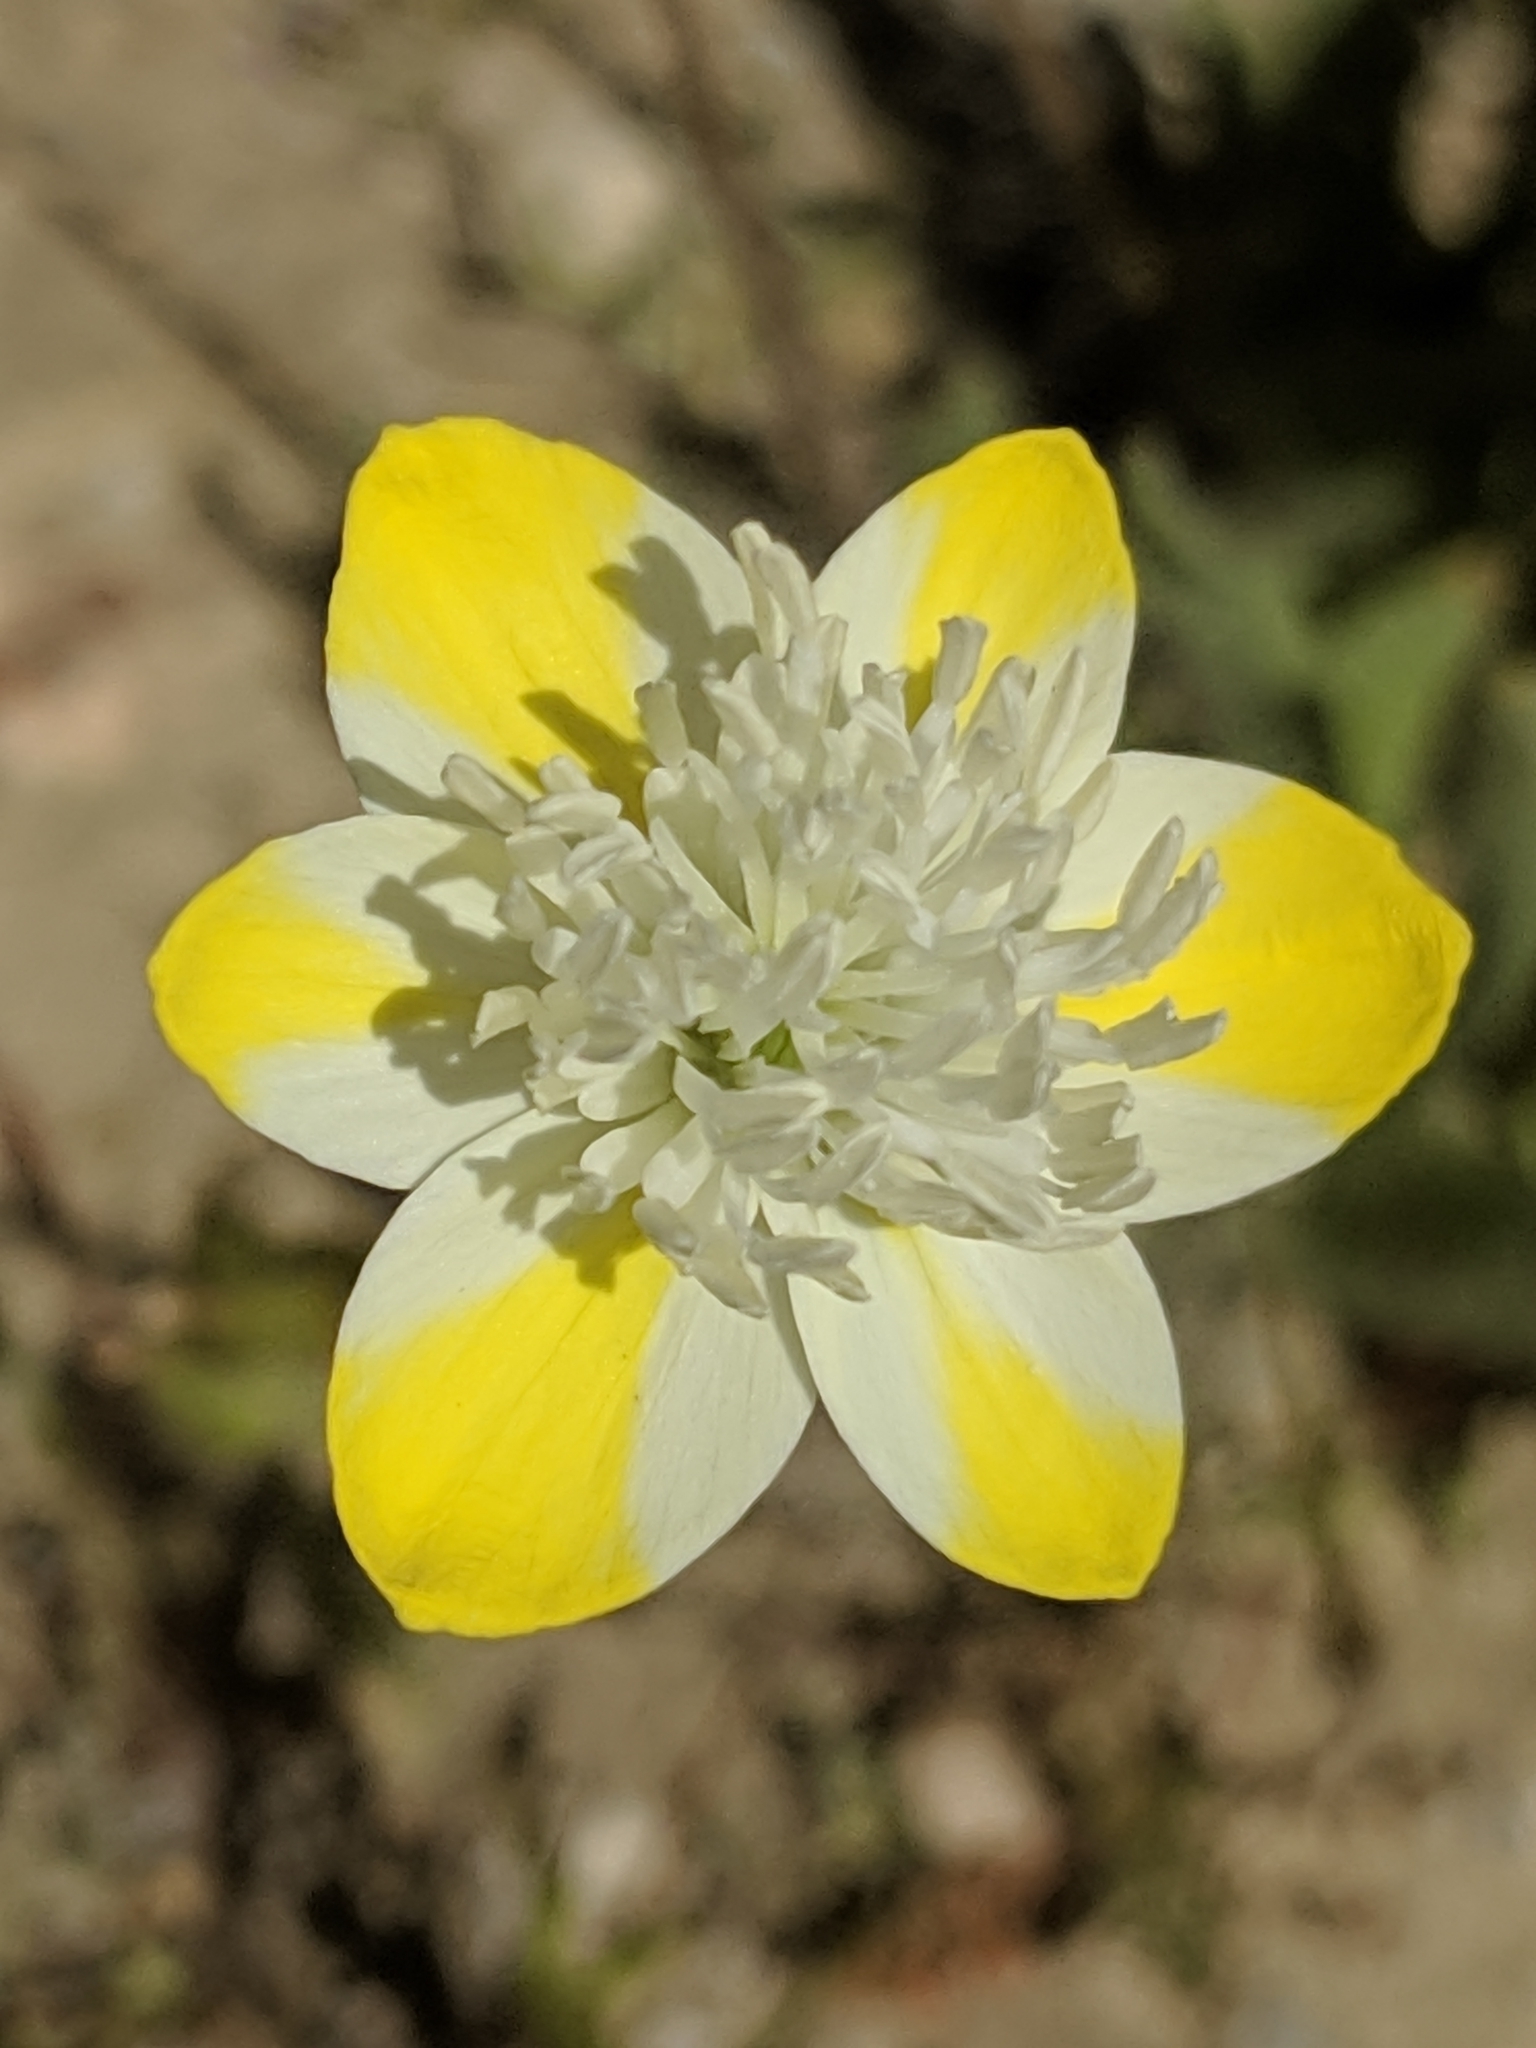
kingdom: Plantae
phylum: Tracheophyta
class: Magnoliopsida
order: Ranunculales
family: Papaveraceae
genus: Platystemon
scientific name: Platystemon californicus
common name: Cream-cups
